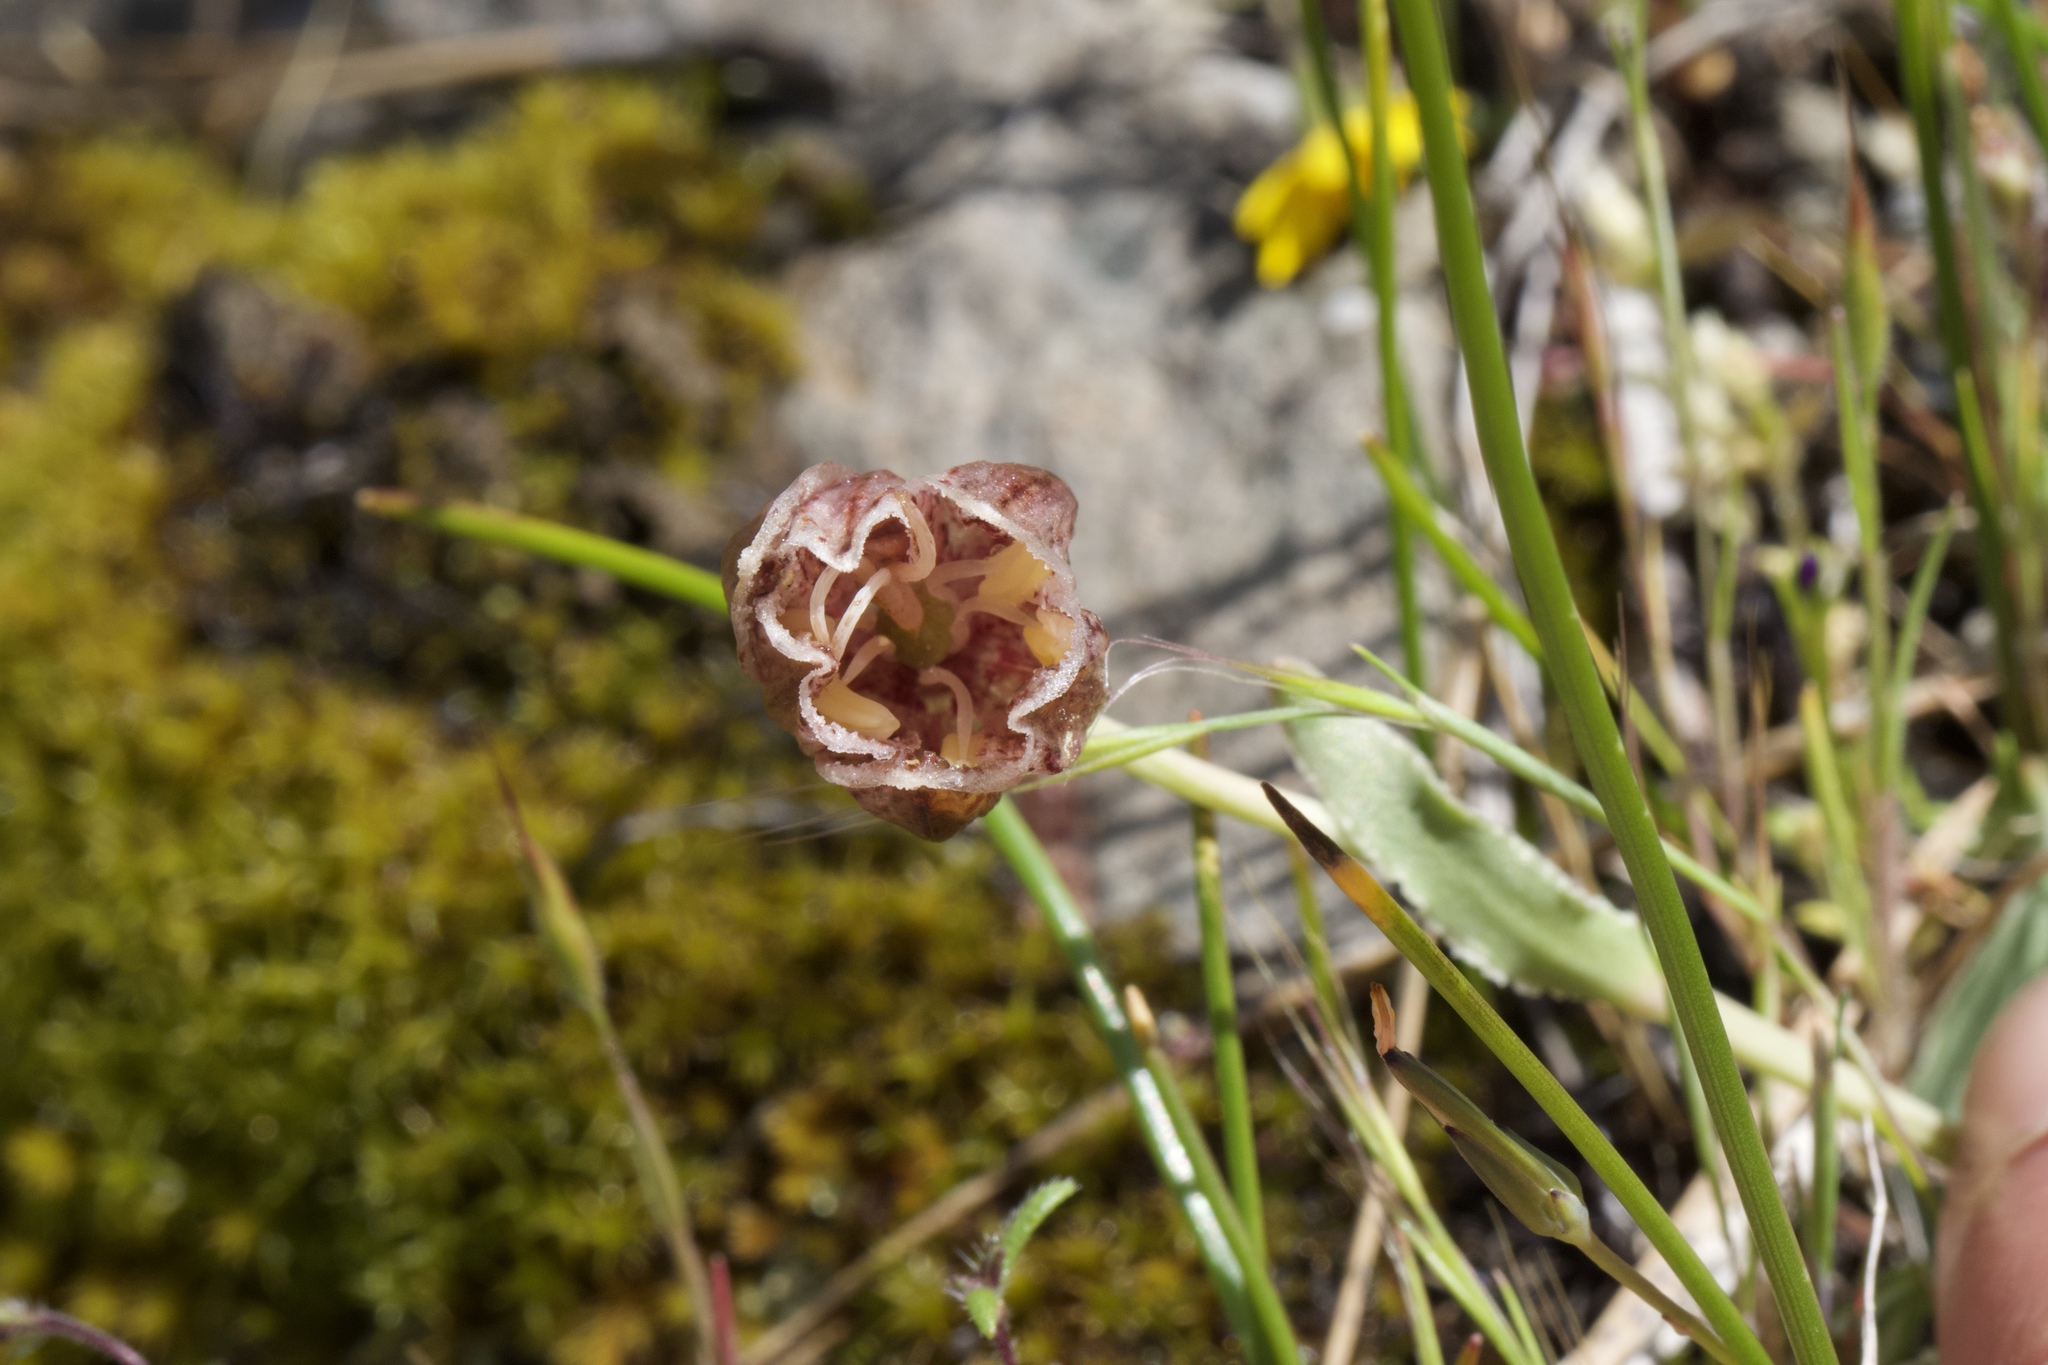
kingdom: Plantae
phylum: Tracheophyta
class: Liliopsida
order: Liliales
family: Liliaceae
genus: Fritillaria
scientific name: Fritillaria purdyi
